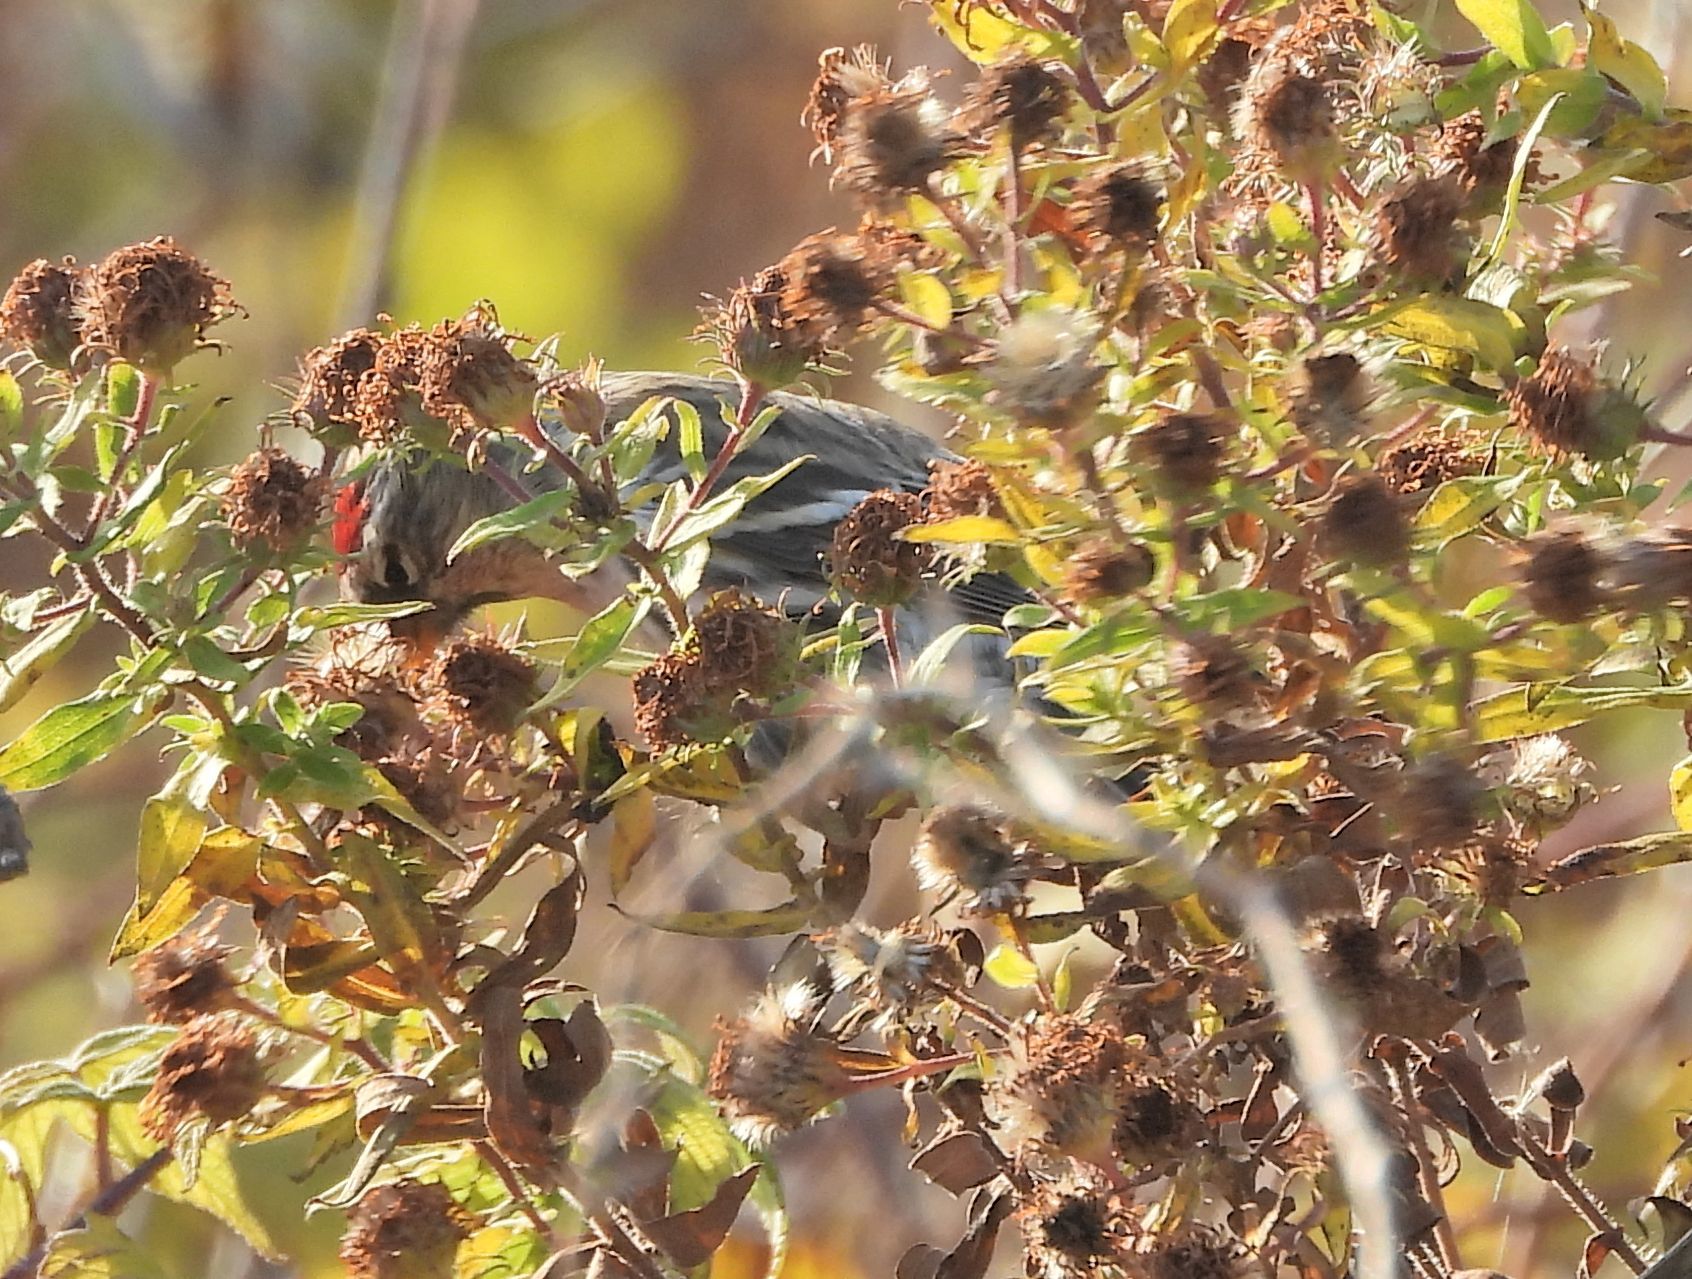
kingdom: Animalia
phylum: Chordata
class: Aves
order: Passeriformes
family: Fringillidae
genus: Acanthis
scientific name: Acanthis flammea
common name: Common redpoll
